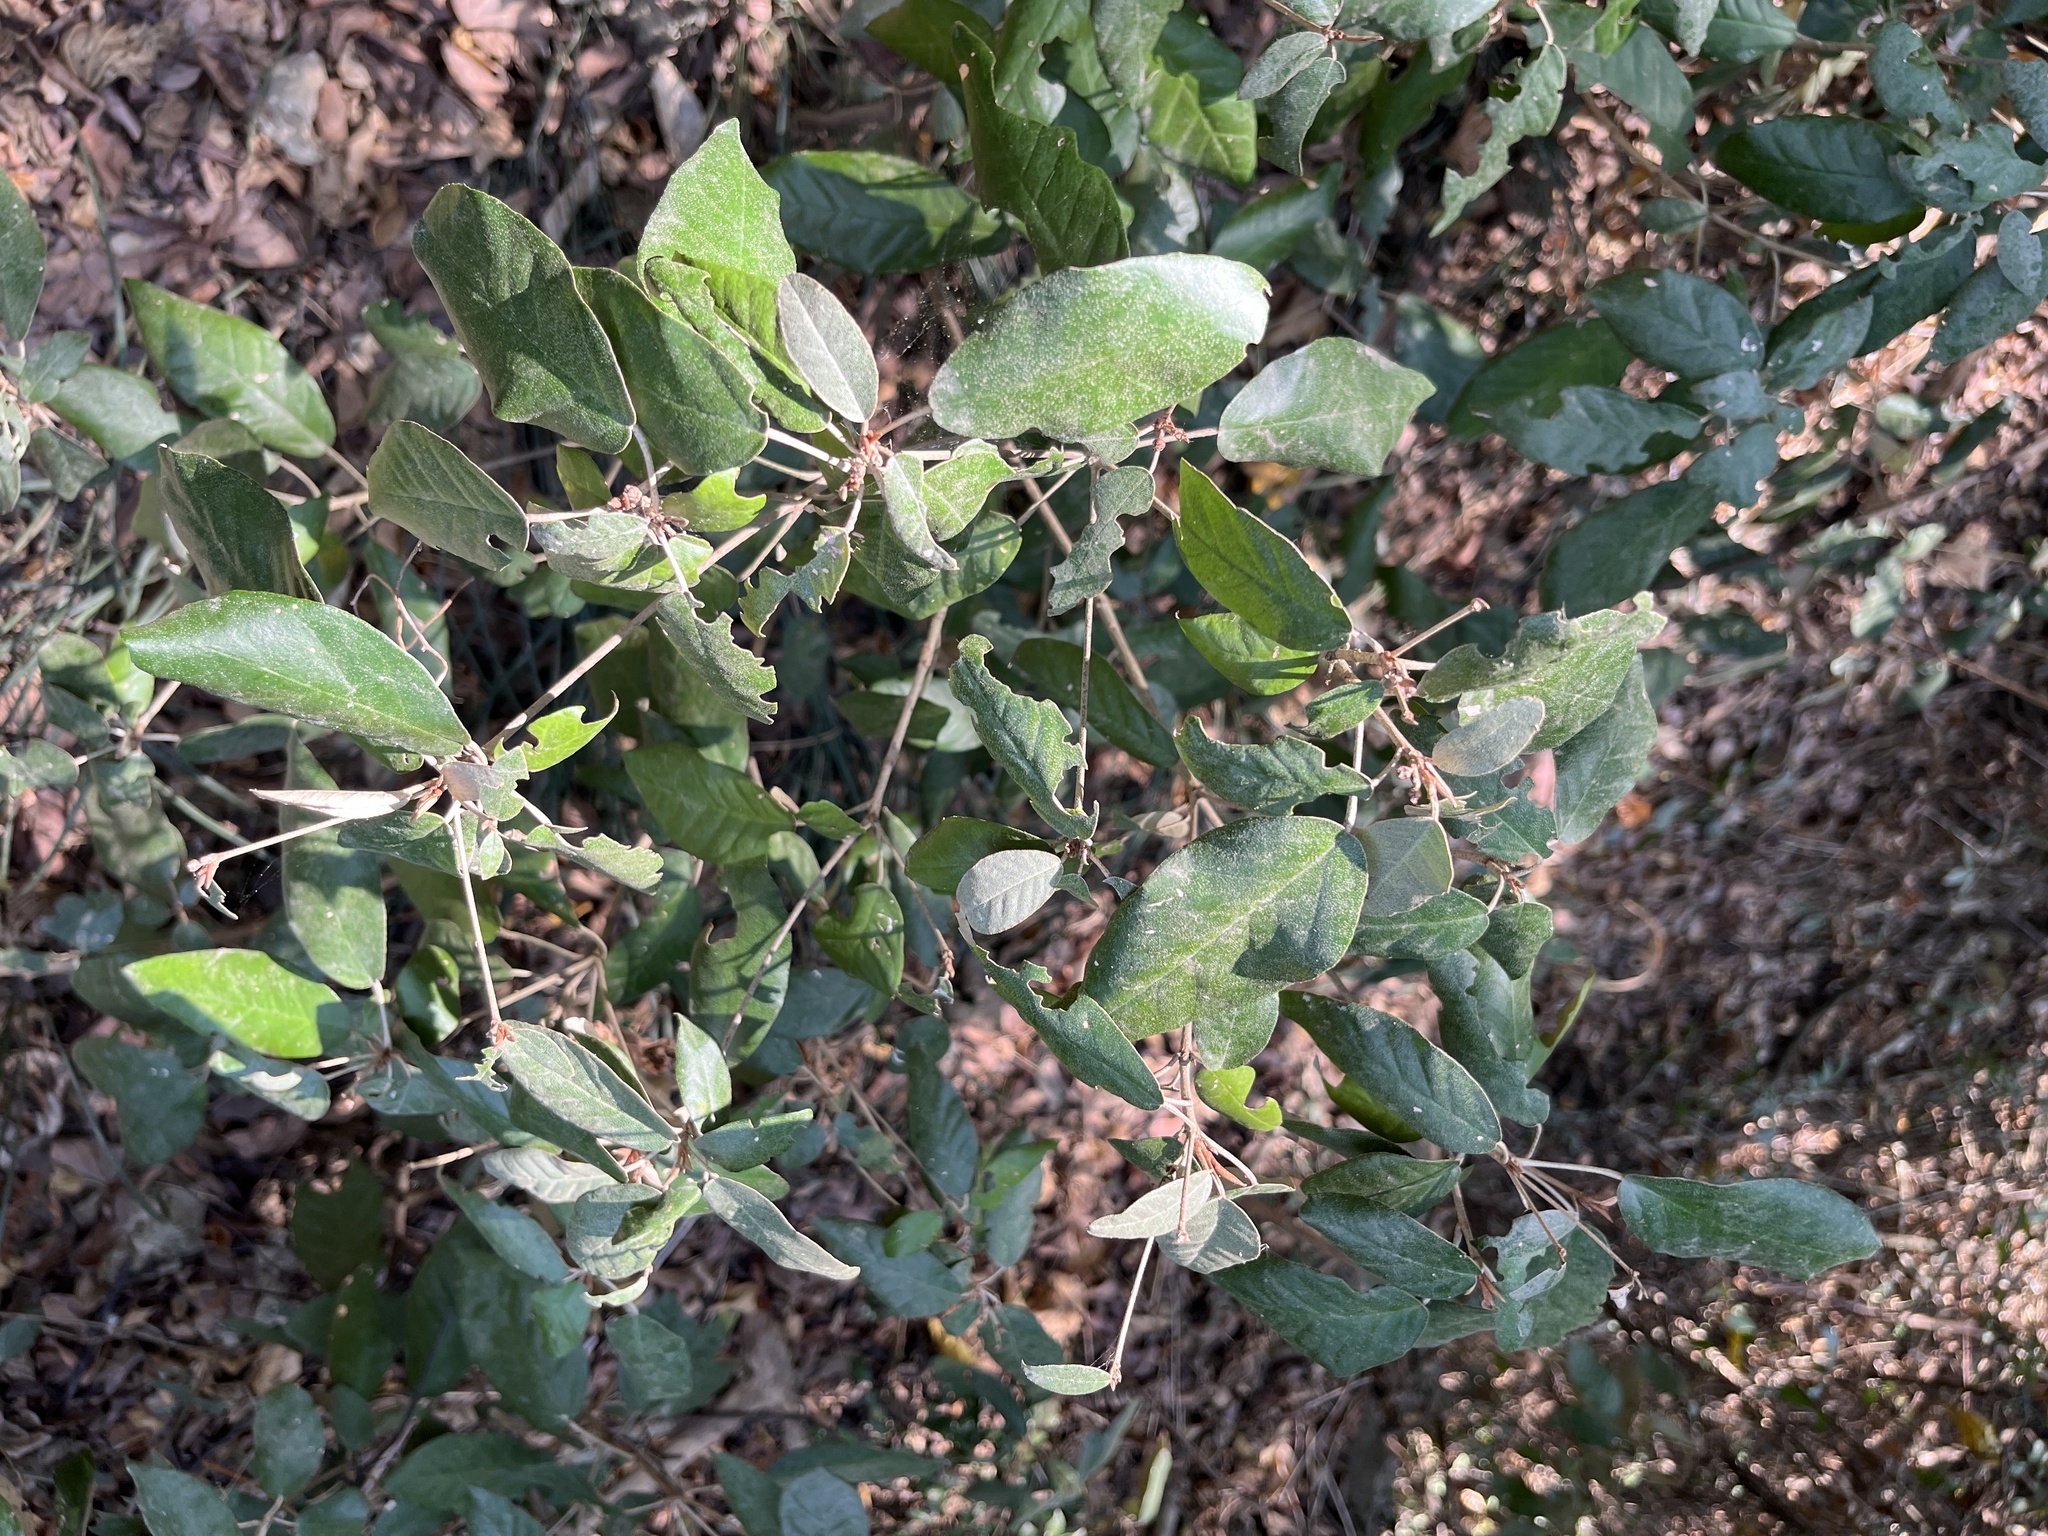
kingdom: Plantae
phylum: Tracheophyta
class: Magnoliopsida
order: Malpighiales
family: Euphorbiaceae
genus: Croton
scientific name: Croton cascarilloides
